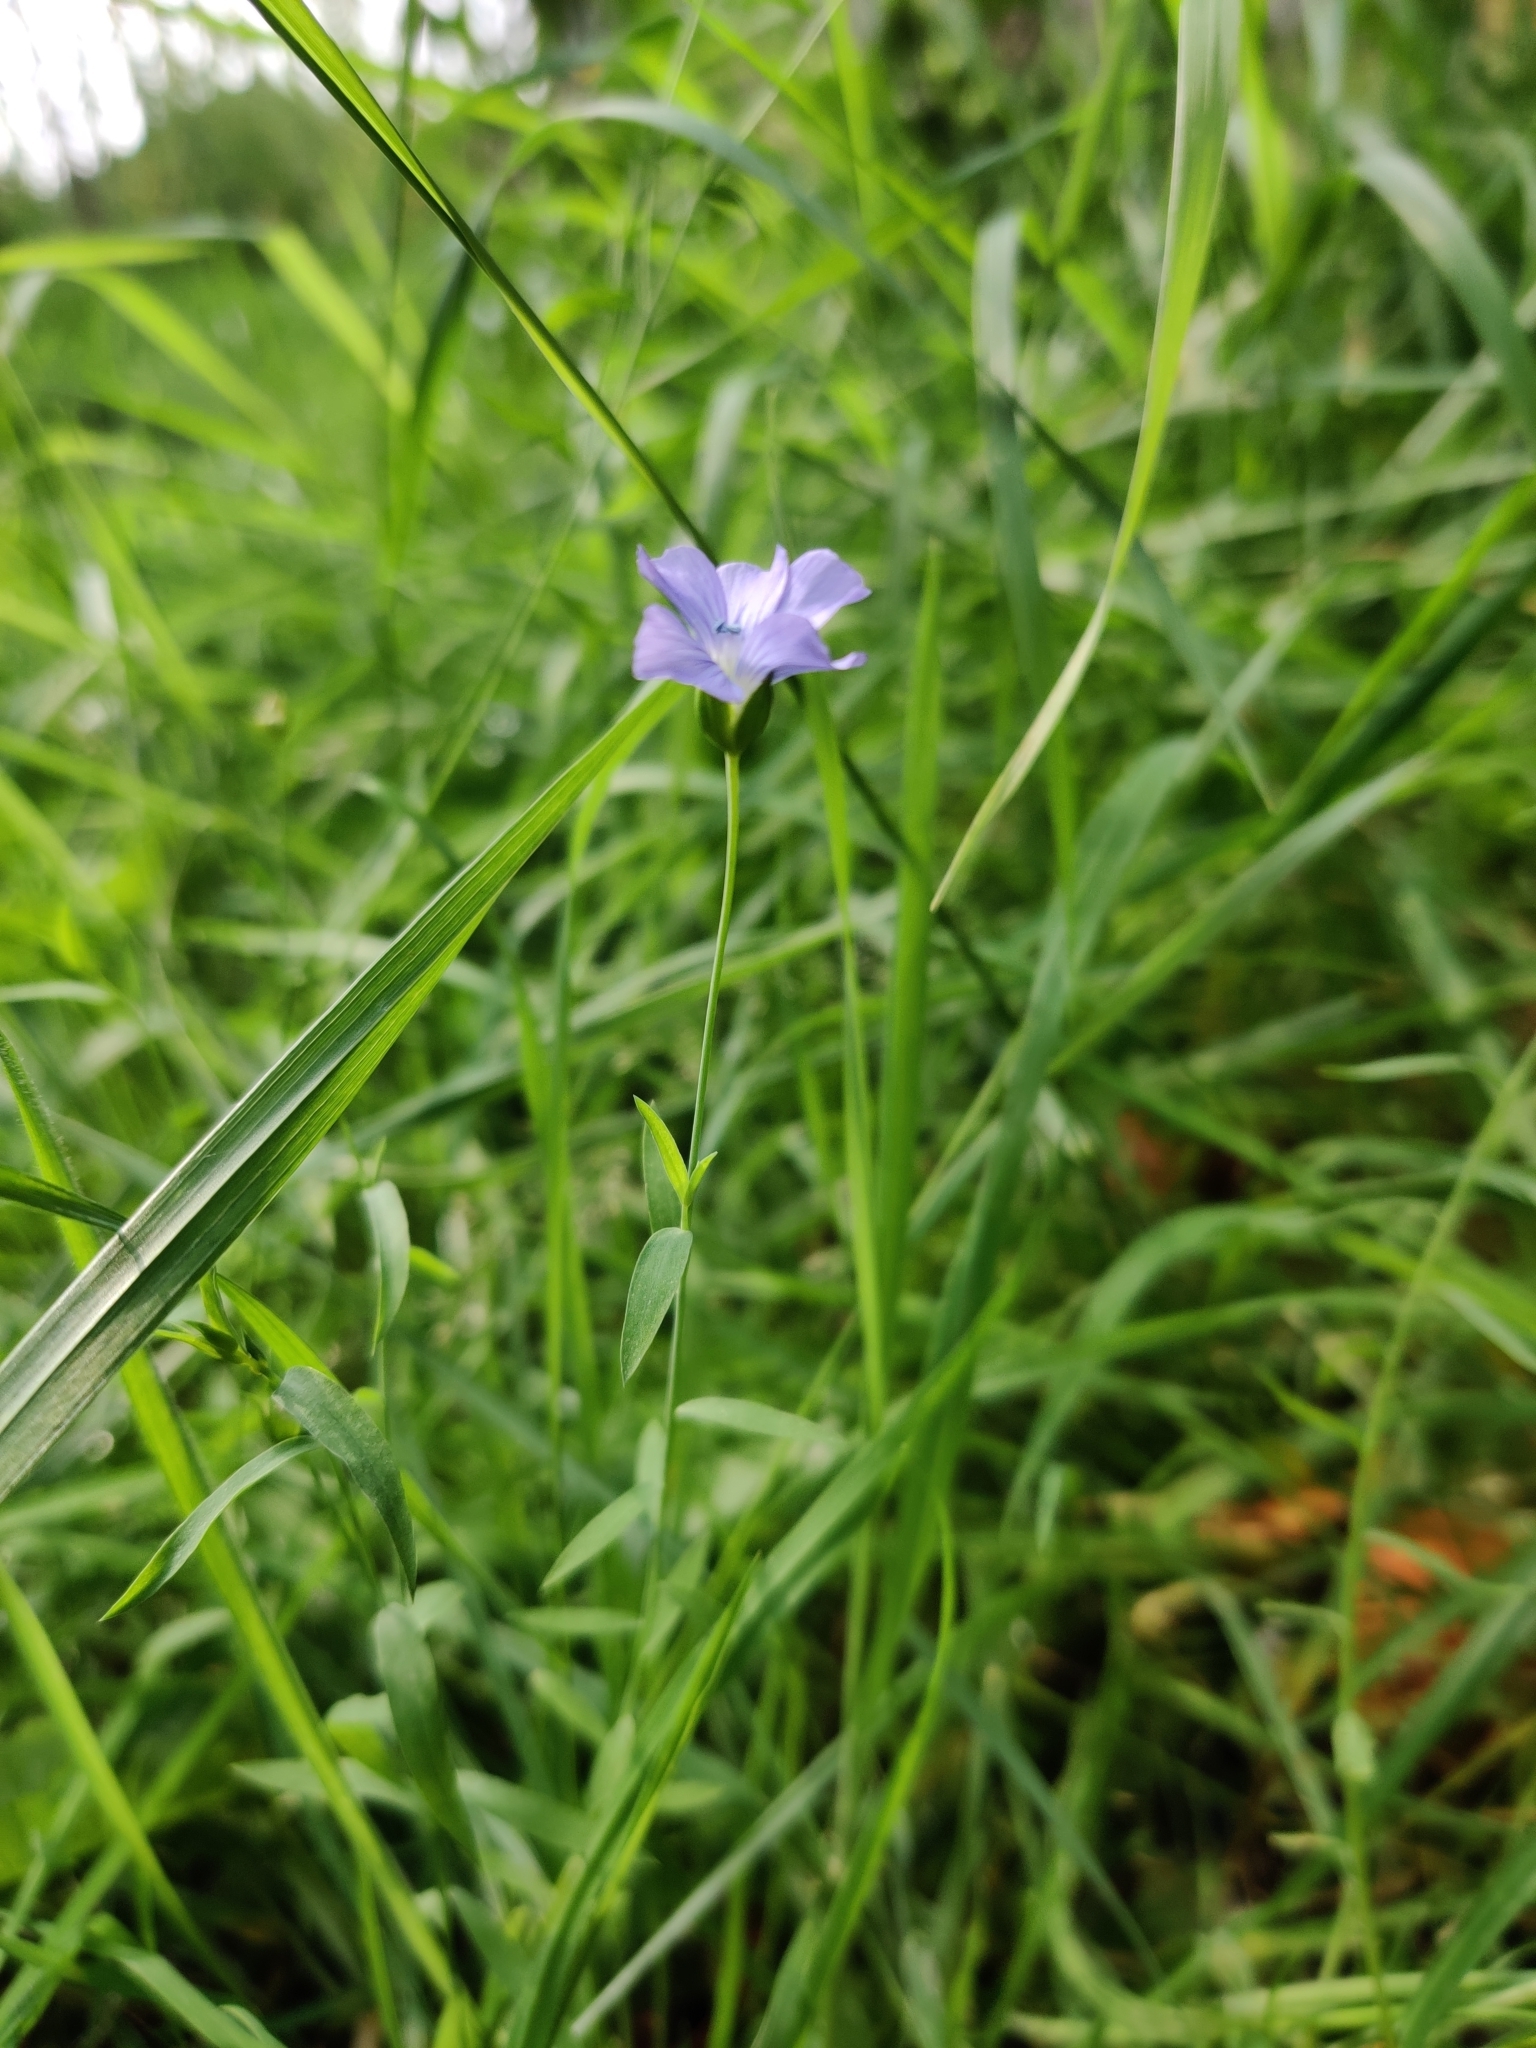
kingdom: Plantae
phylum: Tracheophyta
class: Magnoliopsida
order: Malpighiales
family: Linaceae
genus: Linum
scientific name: Linum usitatissimum
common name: Flax
